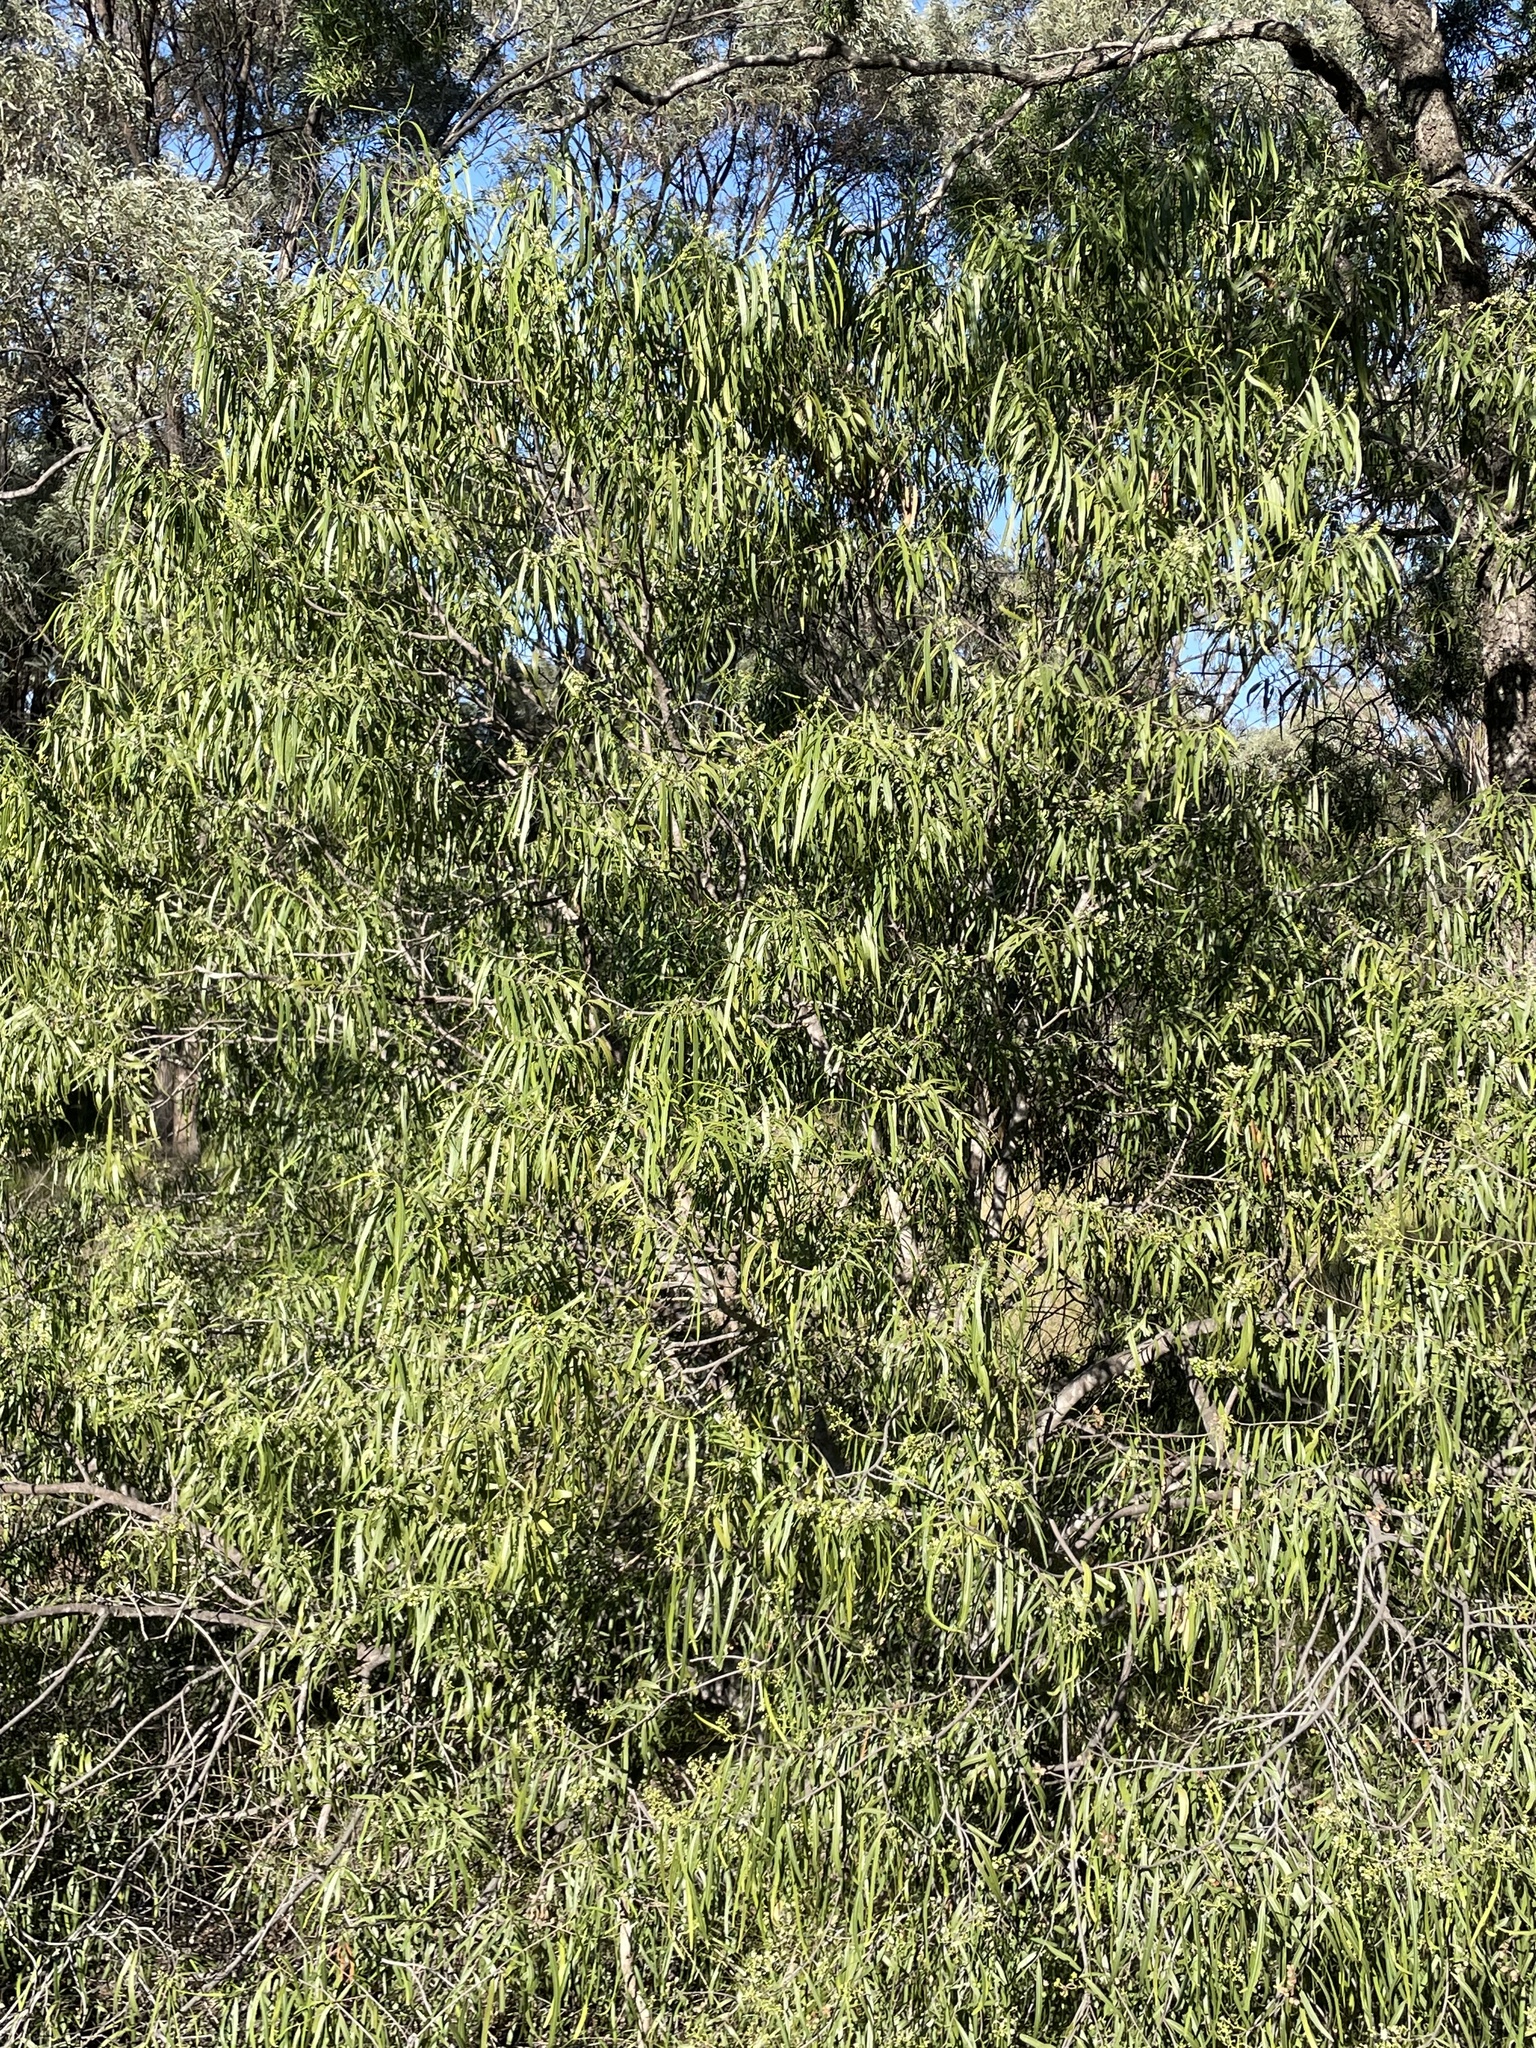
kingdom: Plantae
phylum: Tracheophyta
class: Magnoliopsida
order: Sapindales
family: Rutaceae
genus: Geijera
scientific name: Geijera parviflora
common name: Wilga
